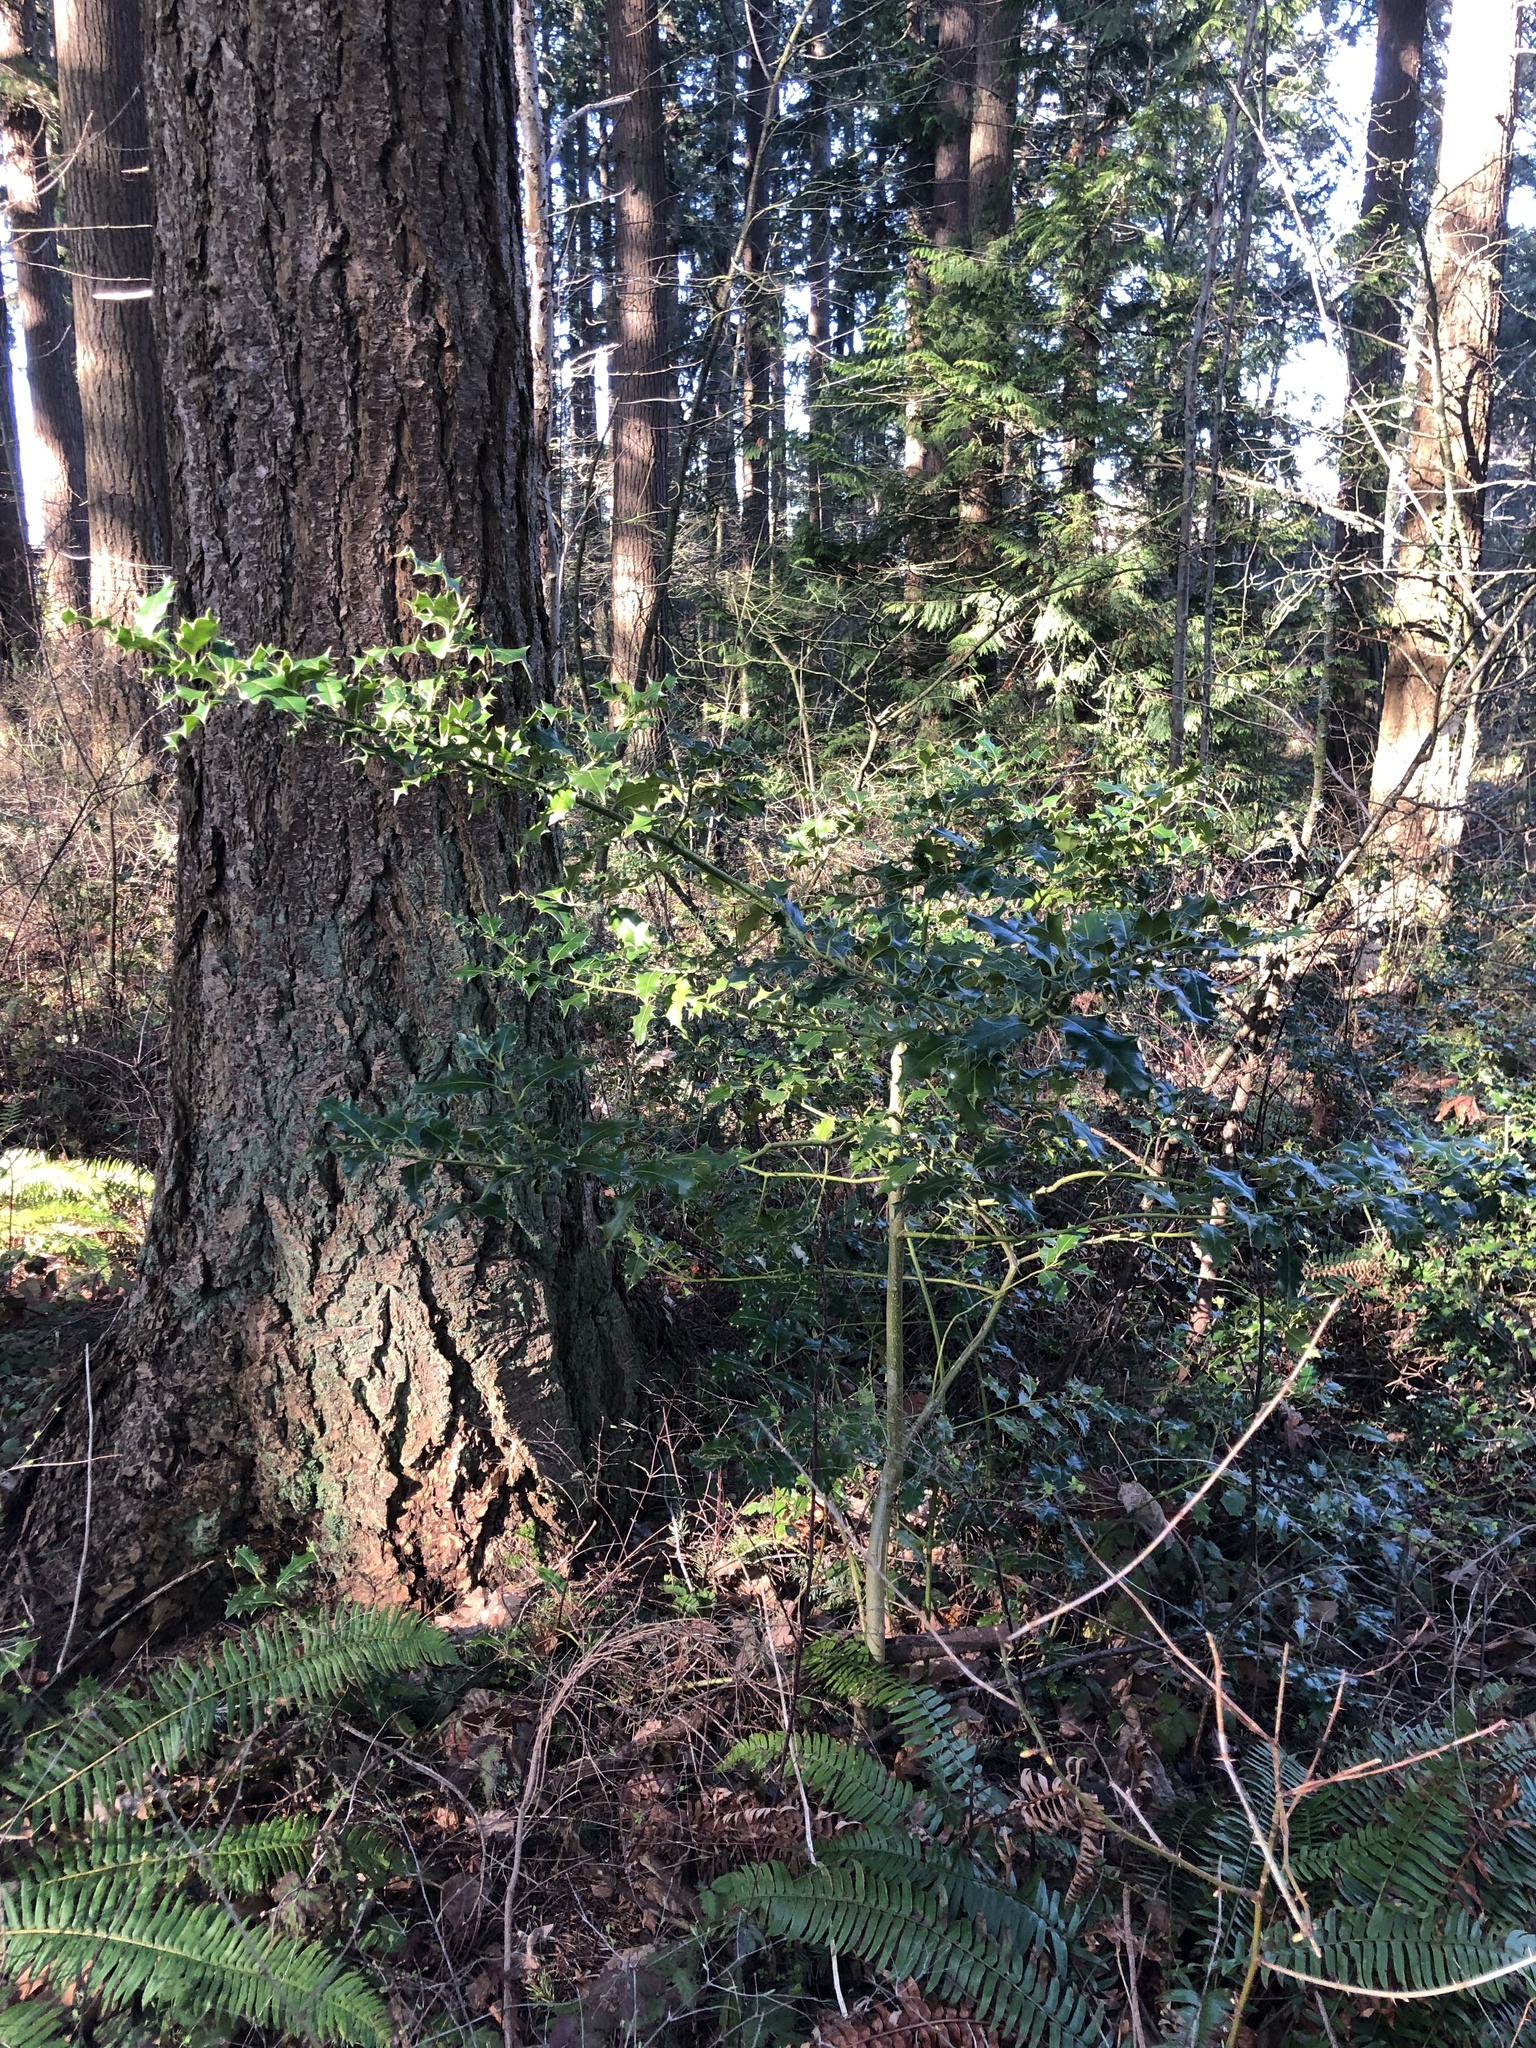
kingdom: Plantae
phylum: Tracheophyta
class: Magnoliopsida
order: Aquifoliales
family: Aquifoliaceae
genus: Ilex
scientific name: Ilex aquifolium
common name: English holly
